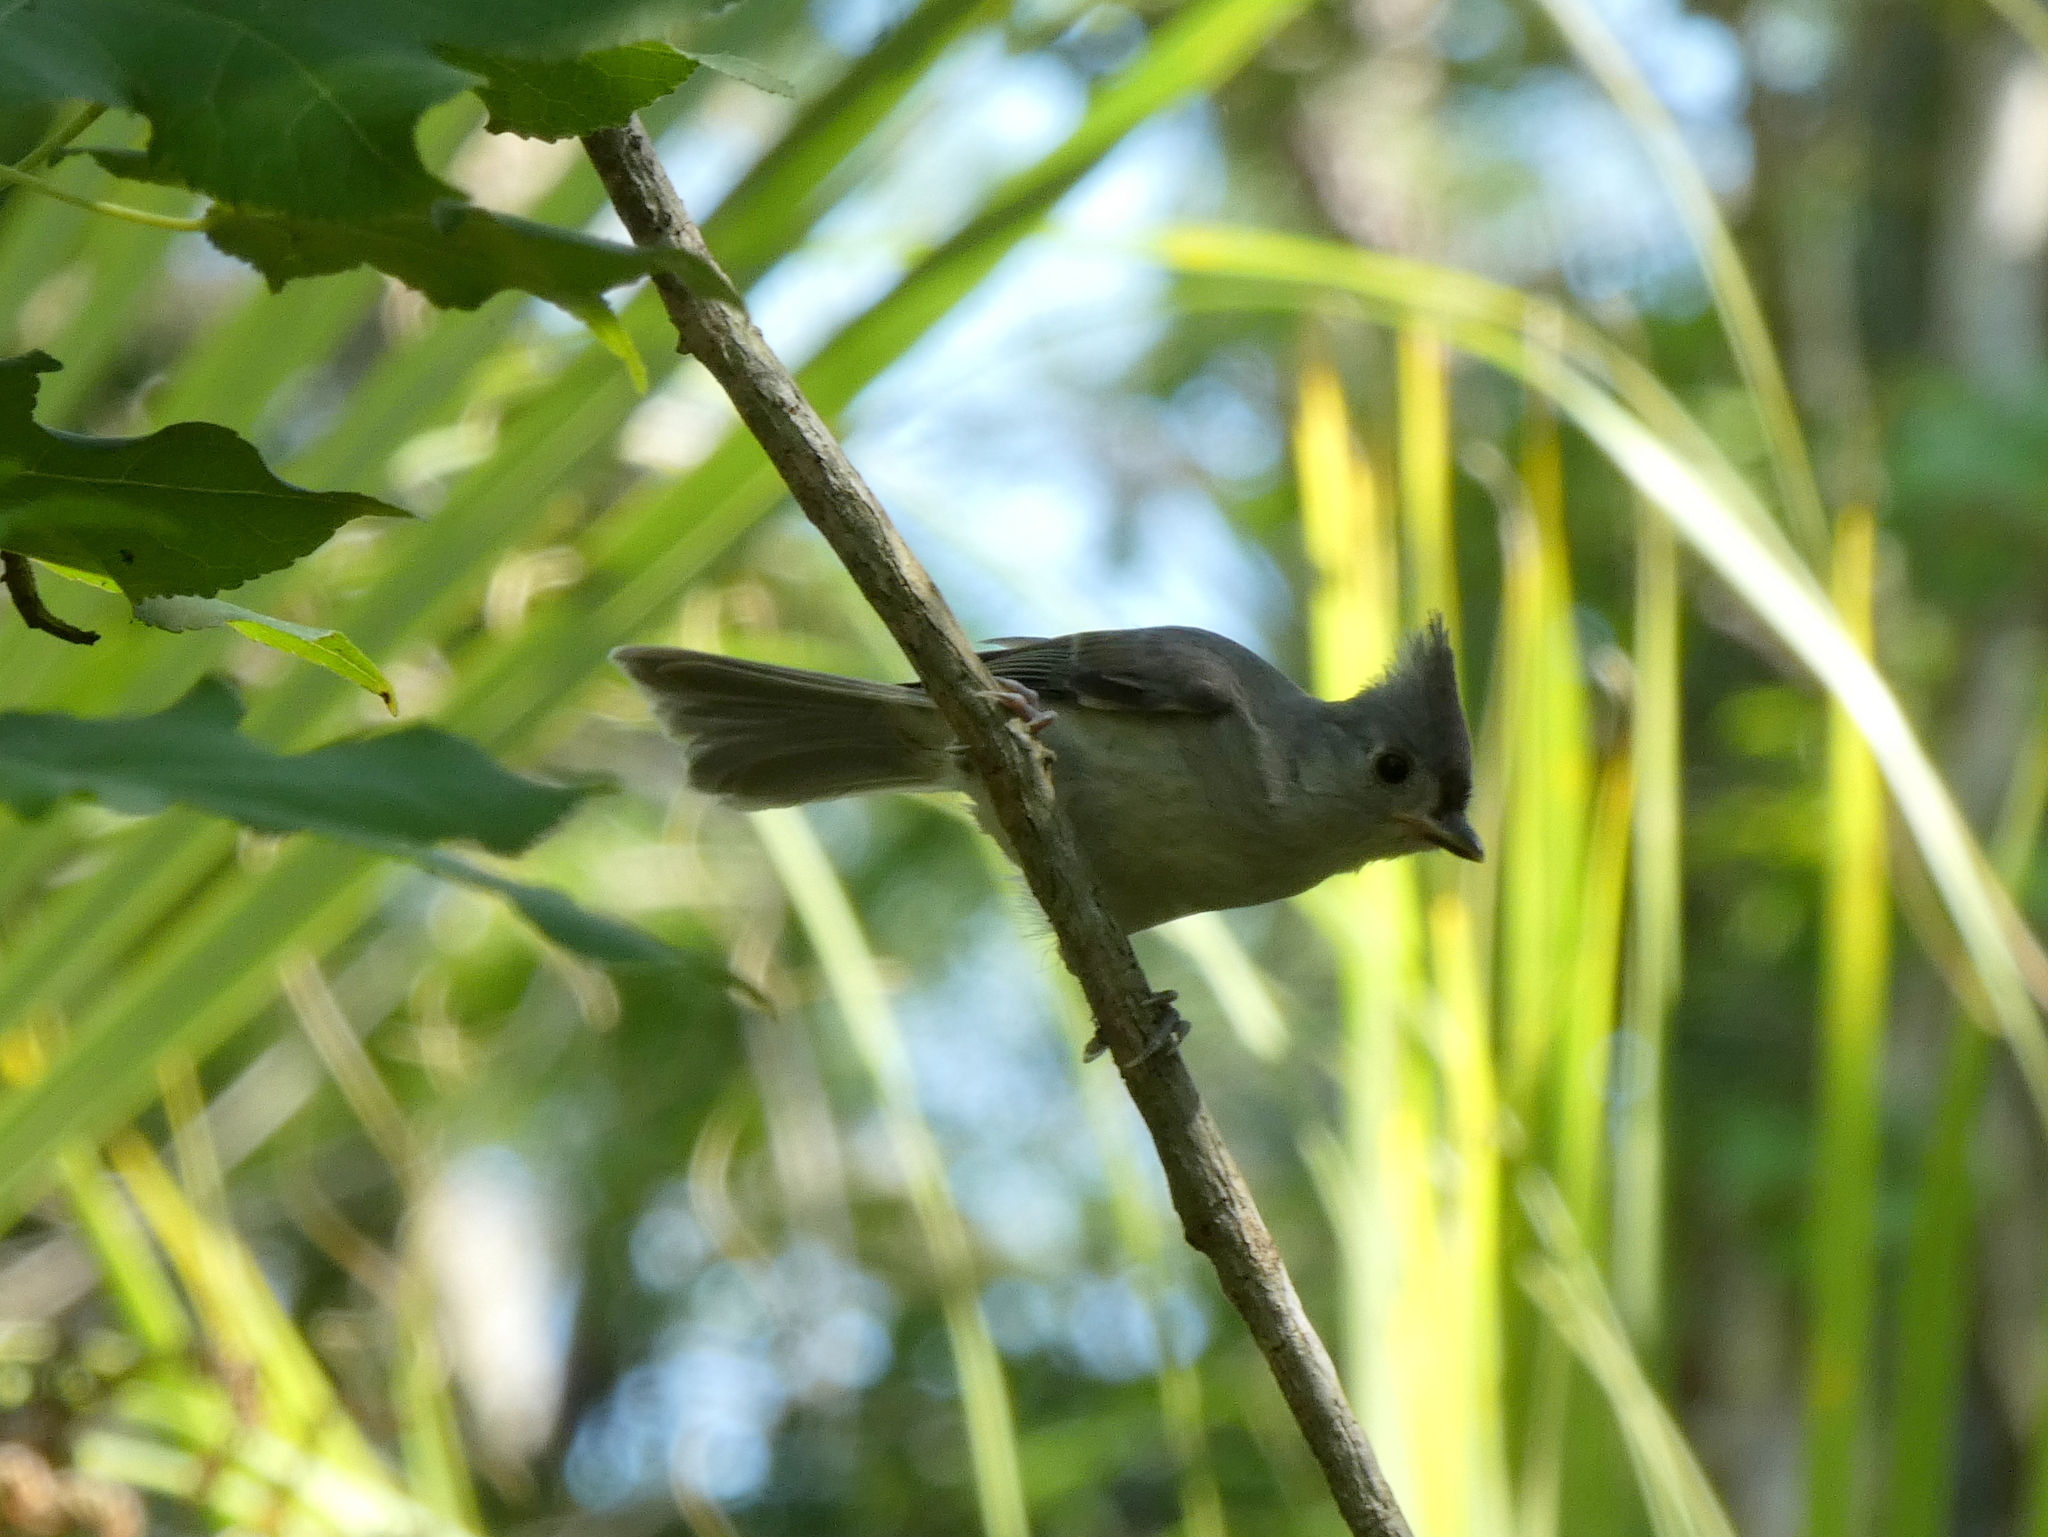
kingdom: Animalia
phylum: Chordata
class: Aves
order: Passeriformes
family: Paridae
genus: Baeolophus
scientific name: Baeolophus bicolor
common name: Tufted titmouse
